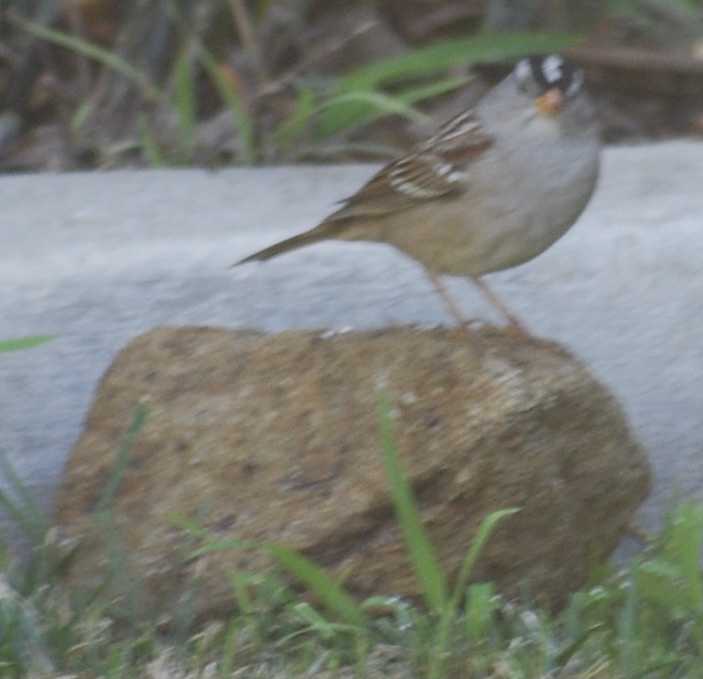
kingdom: Animalia
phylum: Chordata
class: Aves
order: Passeriformes
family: Passerellidae
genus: Zonotrichia
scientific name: Zonotrichia leucophrys
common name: White-crowned sparrow
